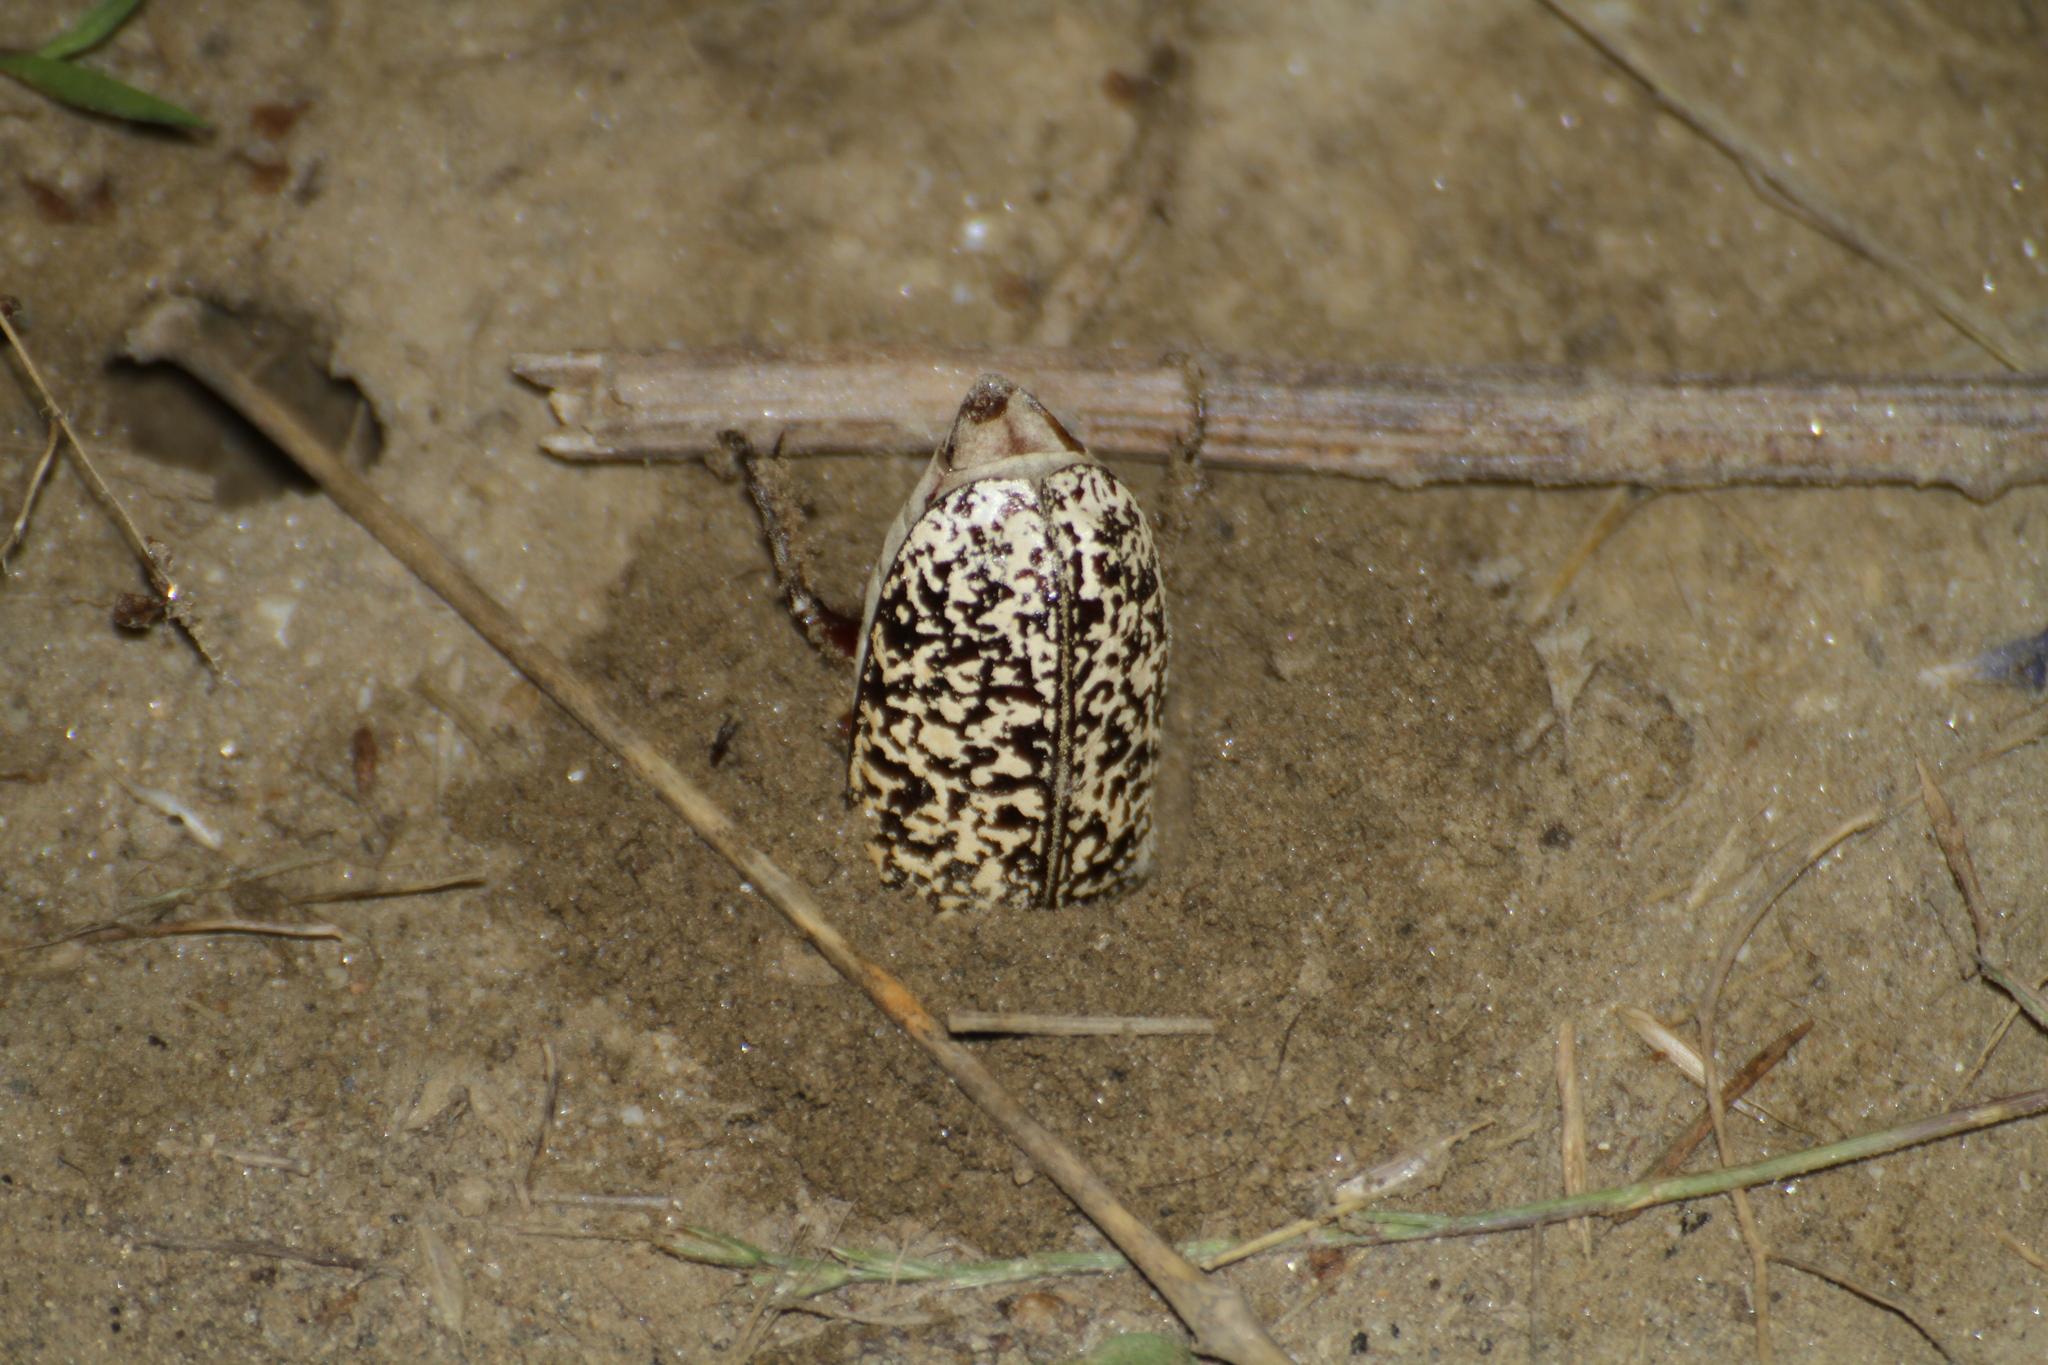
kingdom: Animalia
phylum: Arthropoda
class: Insecta
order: Coleoptera
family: Scarabaeidae
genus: Polyphylla
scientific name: Polyphylla fullo
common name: Pine chafer
